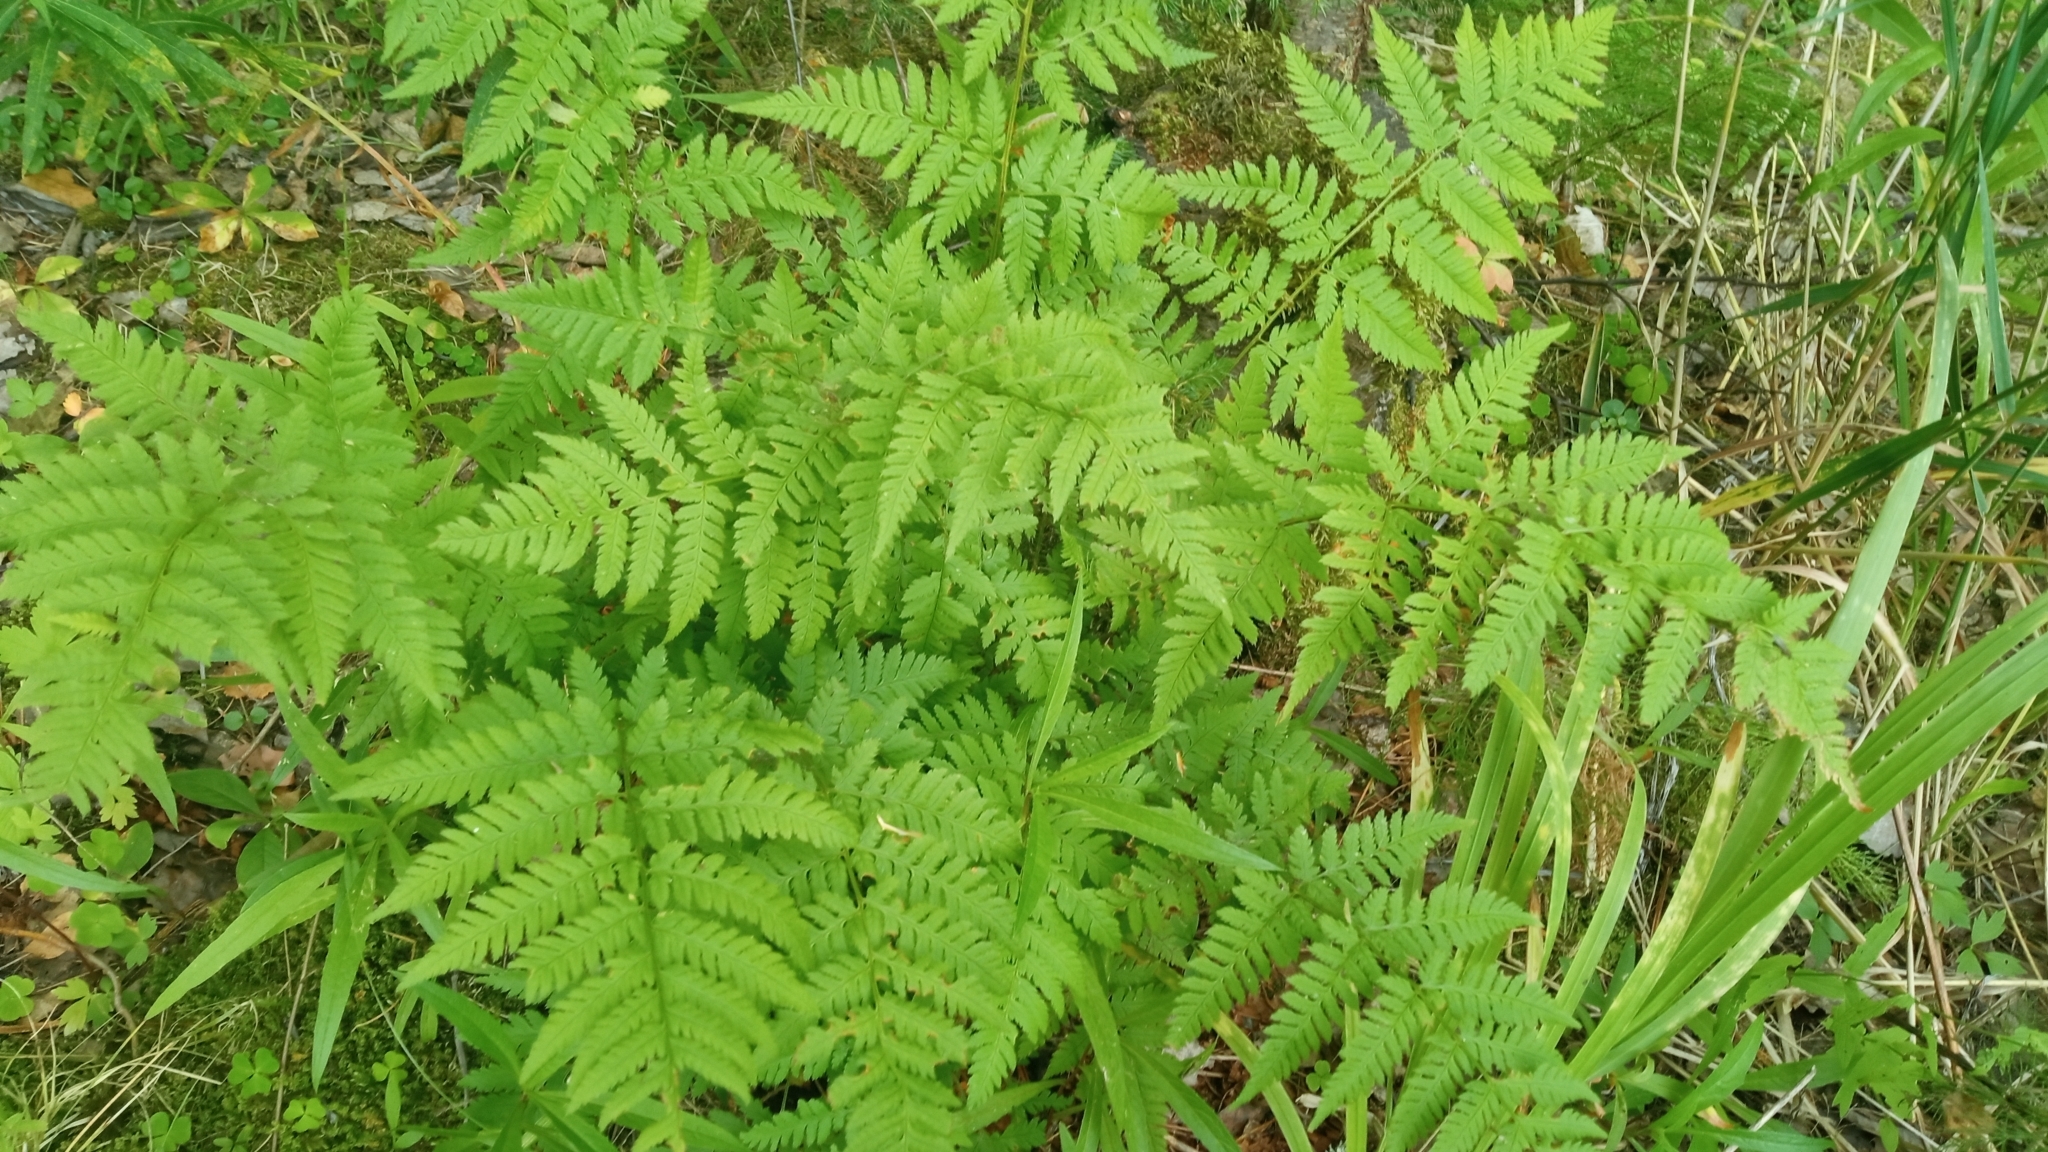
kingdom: Plantae
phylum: Tracheophyta
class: Polypodiopsida
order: Polypodiales
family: Dryopteridaceae
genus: Dryopteris
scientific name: Dryopteris carthusiana
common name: Narrow buckler-fern
